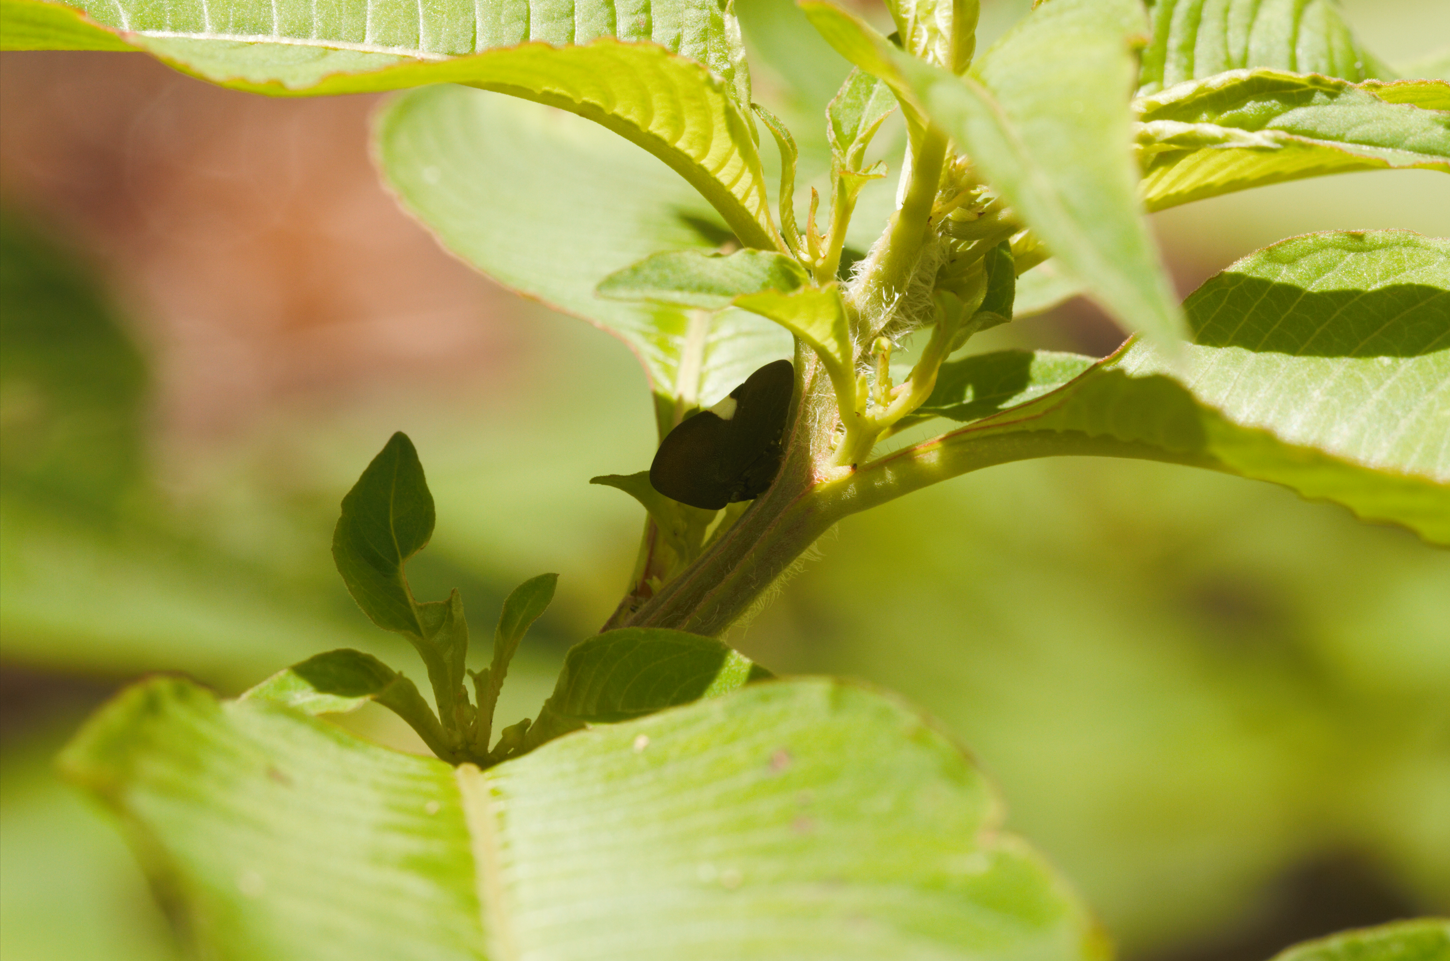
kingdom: Animalia
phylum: Arthropoda
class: Insecta
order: Hemiptera
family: Membracidae
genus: Membracis
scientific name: Membracis nigra
